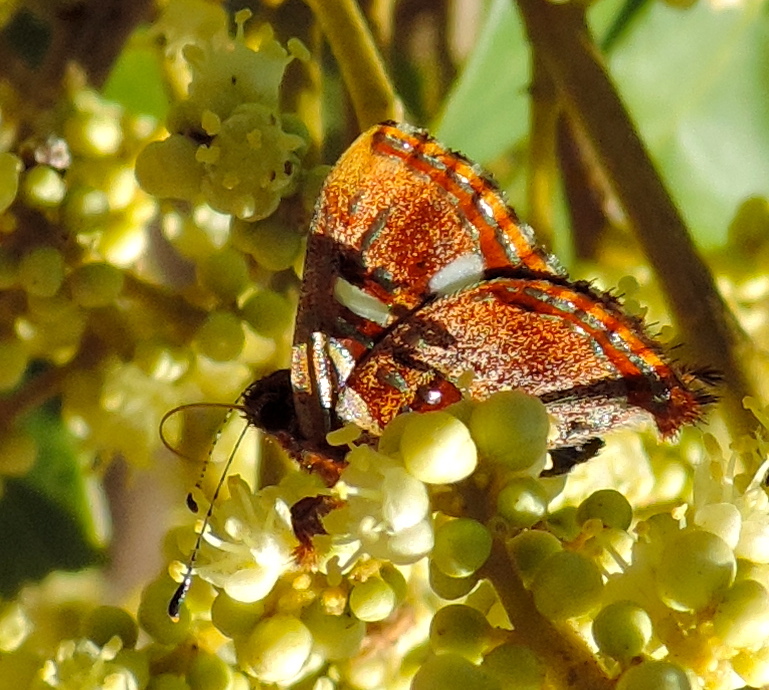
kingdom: Animalia
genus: Anteros
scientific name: Anteros carausius
